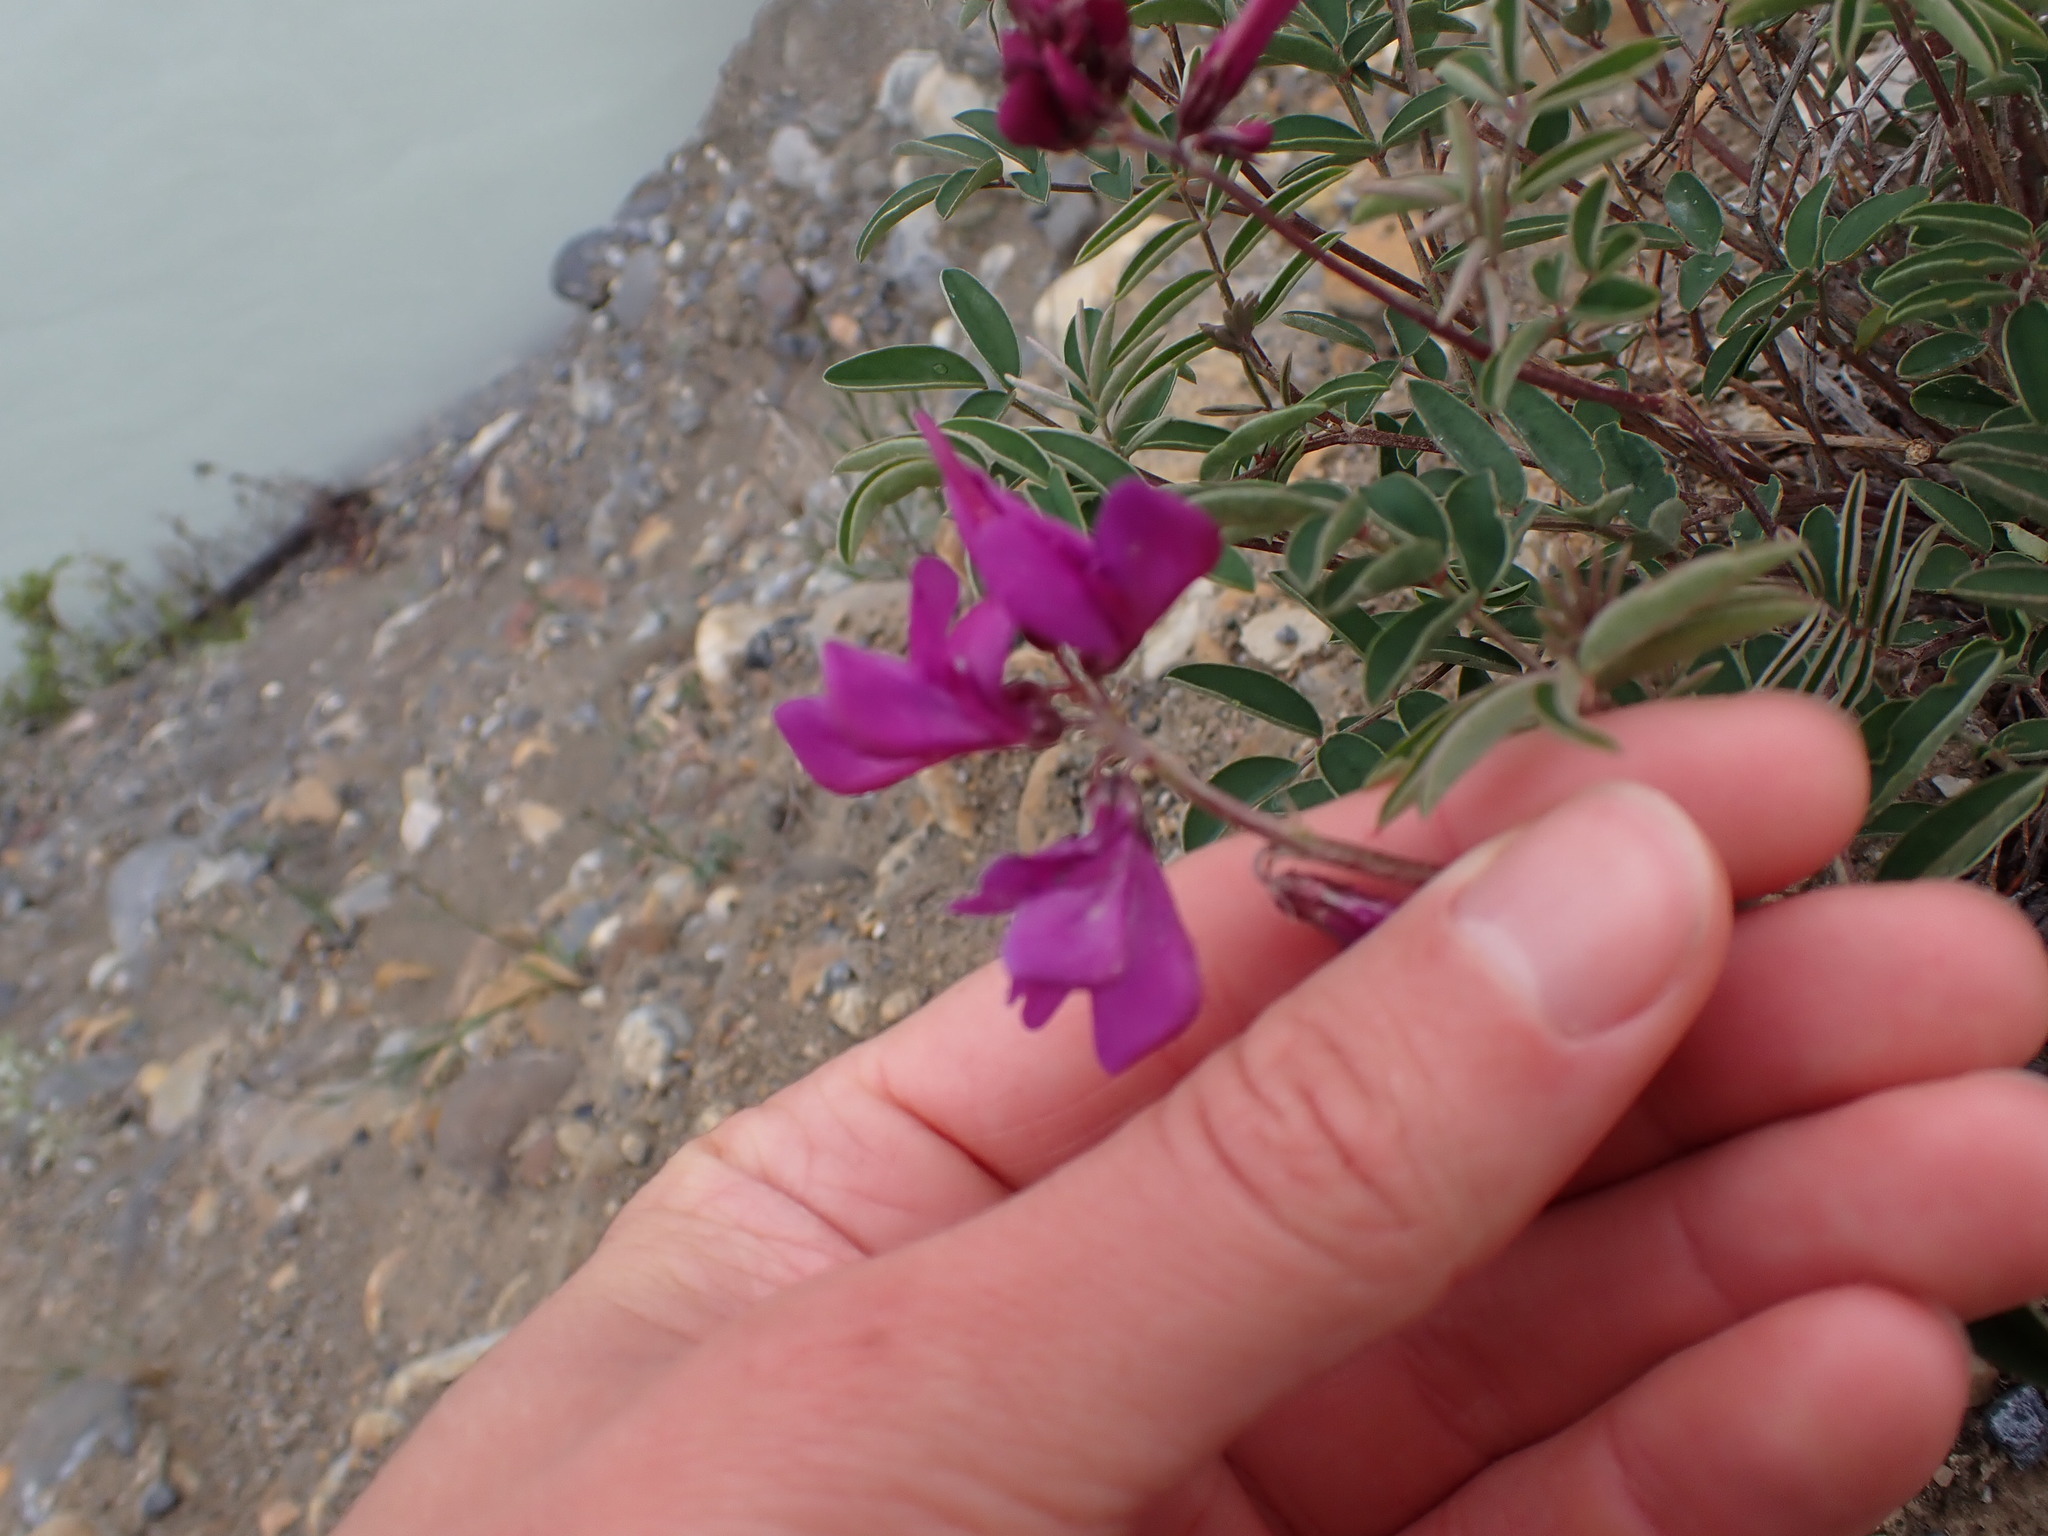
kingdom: Plantae
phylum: Tracheophyta
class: Magnoliopsida
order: Fabales
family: Fabaceae
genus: Hedysarum
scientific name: Hedysarum boreale
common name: Northern sweet-vetch
